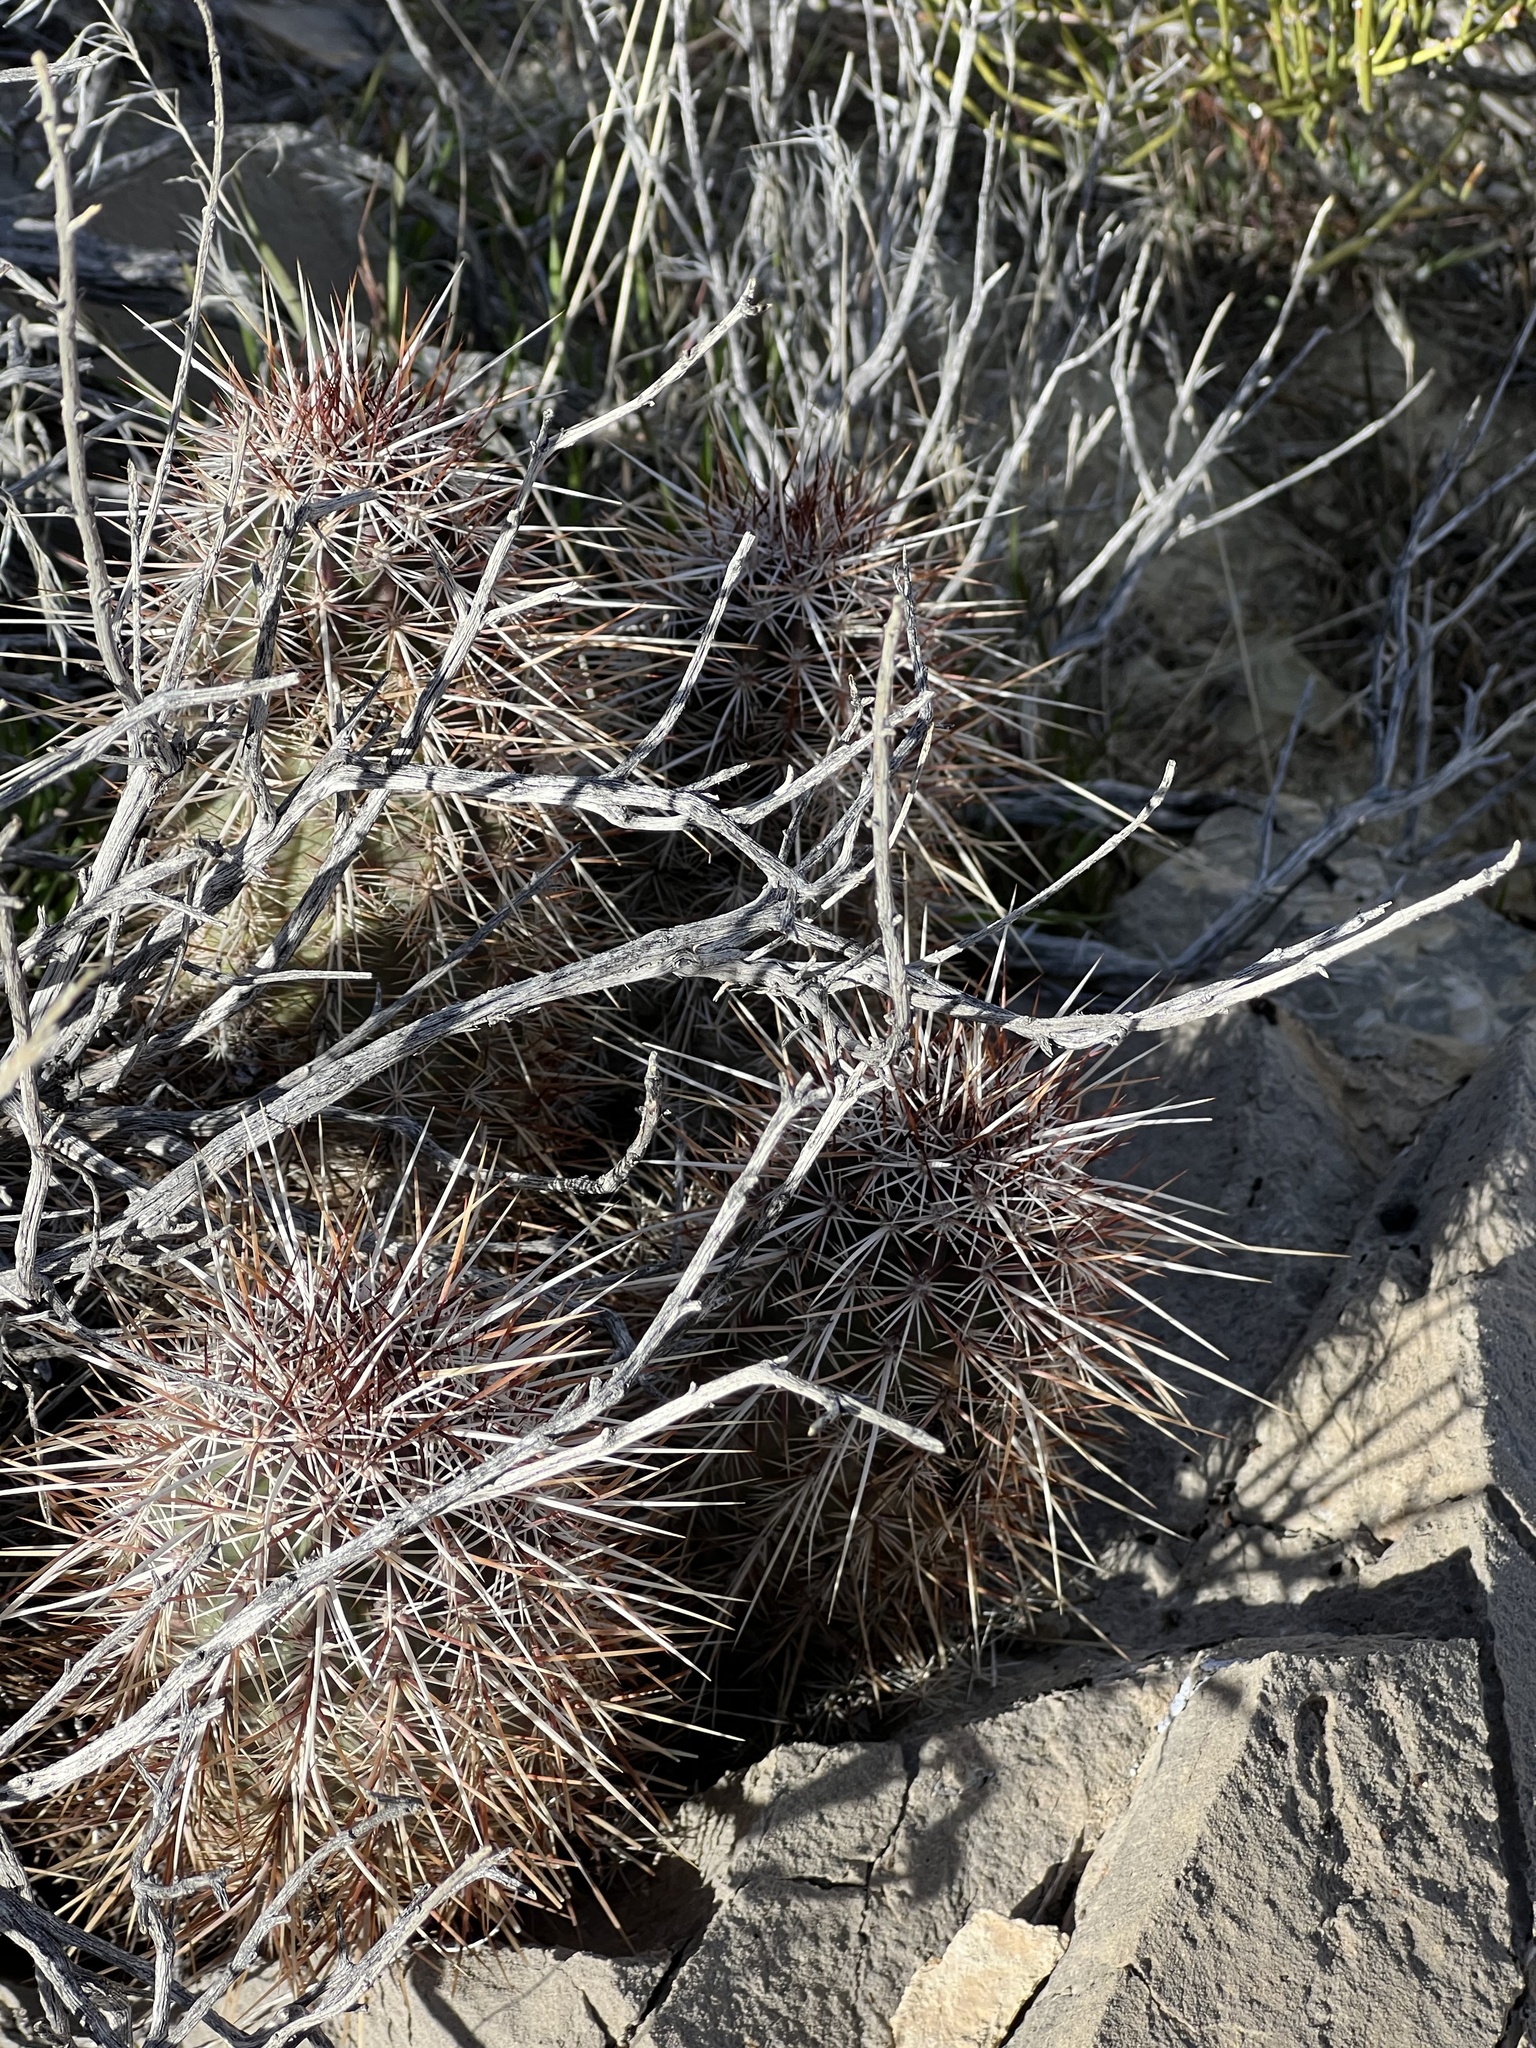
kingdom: Plantae
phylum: Tracheophyta
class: Magnoliopsida
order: Caryophyllales
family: Cactaceae
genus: Echinocereus
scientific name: Echinocereus engelmannii
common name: Engelmann's hedgehog cactus
